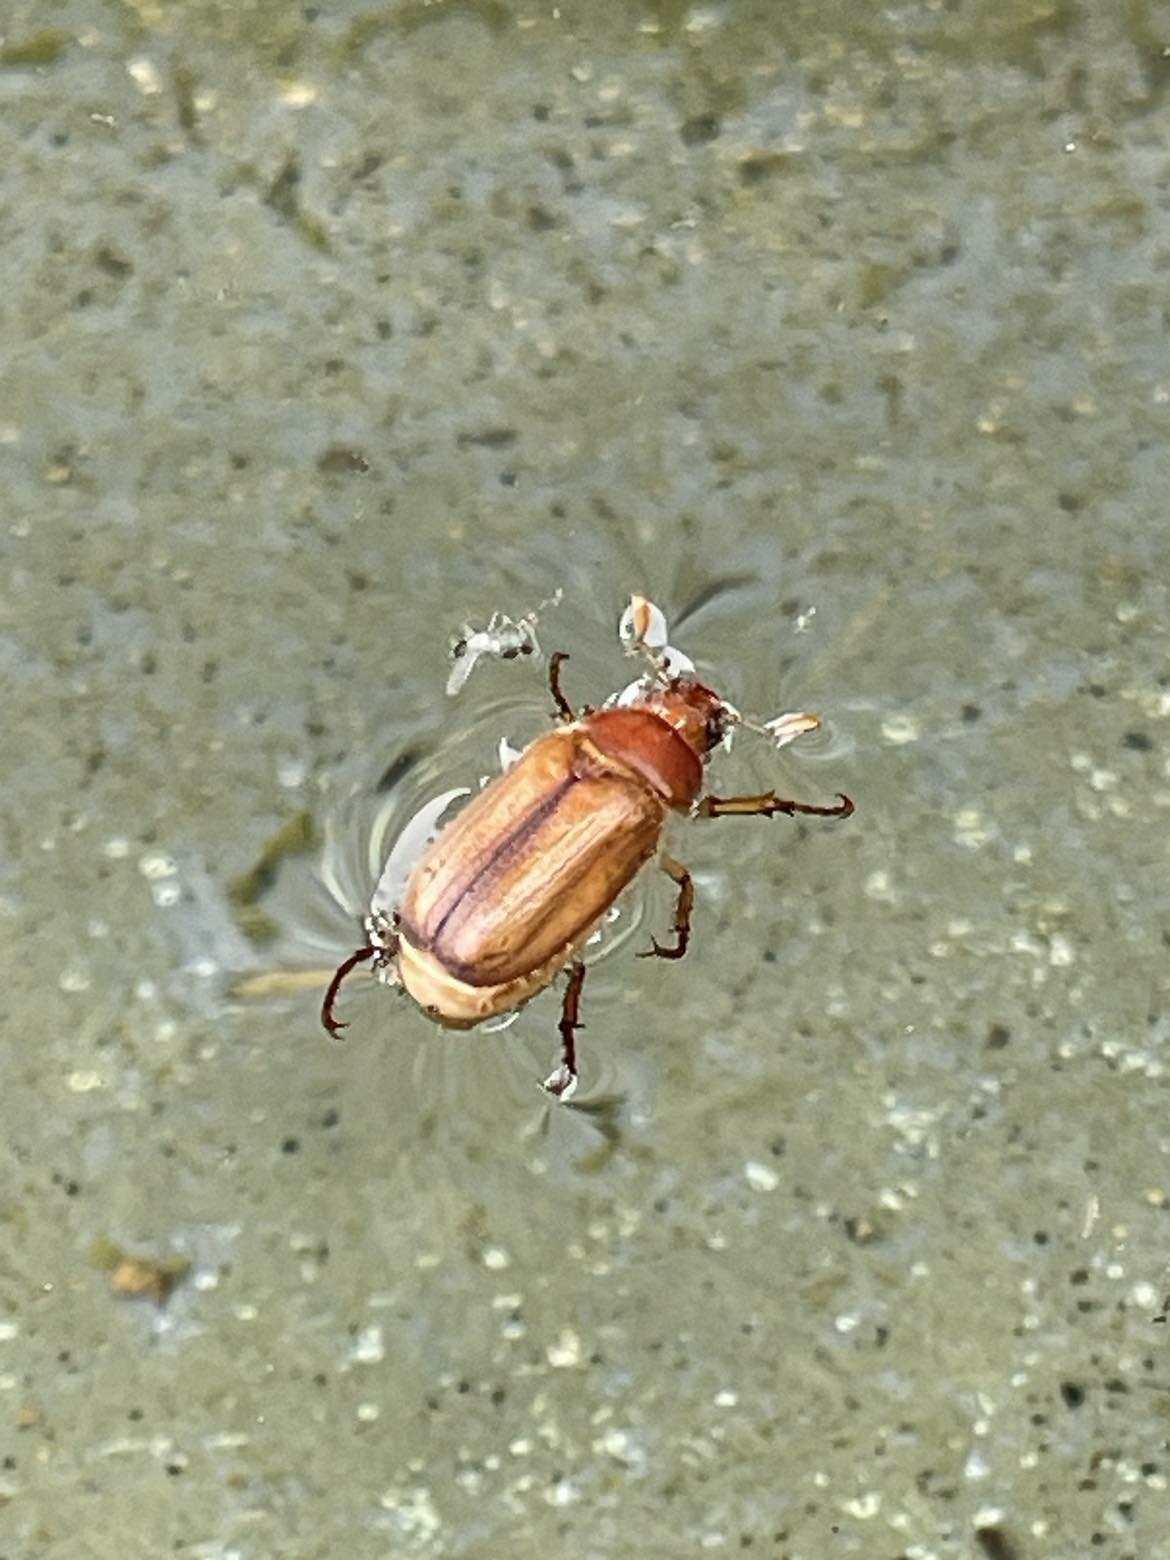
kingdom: Animalia
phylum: Arthropoda
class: Insecta
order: Coleoptera
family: Scarabaeidae
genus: Amphimallon
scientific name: Amphimallon majale
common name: European chafer
